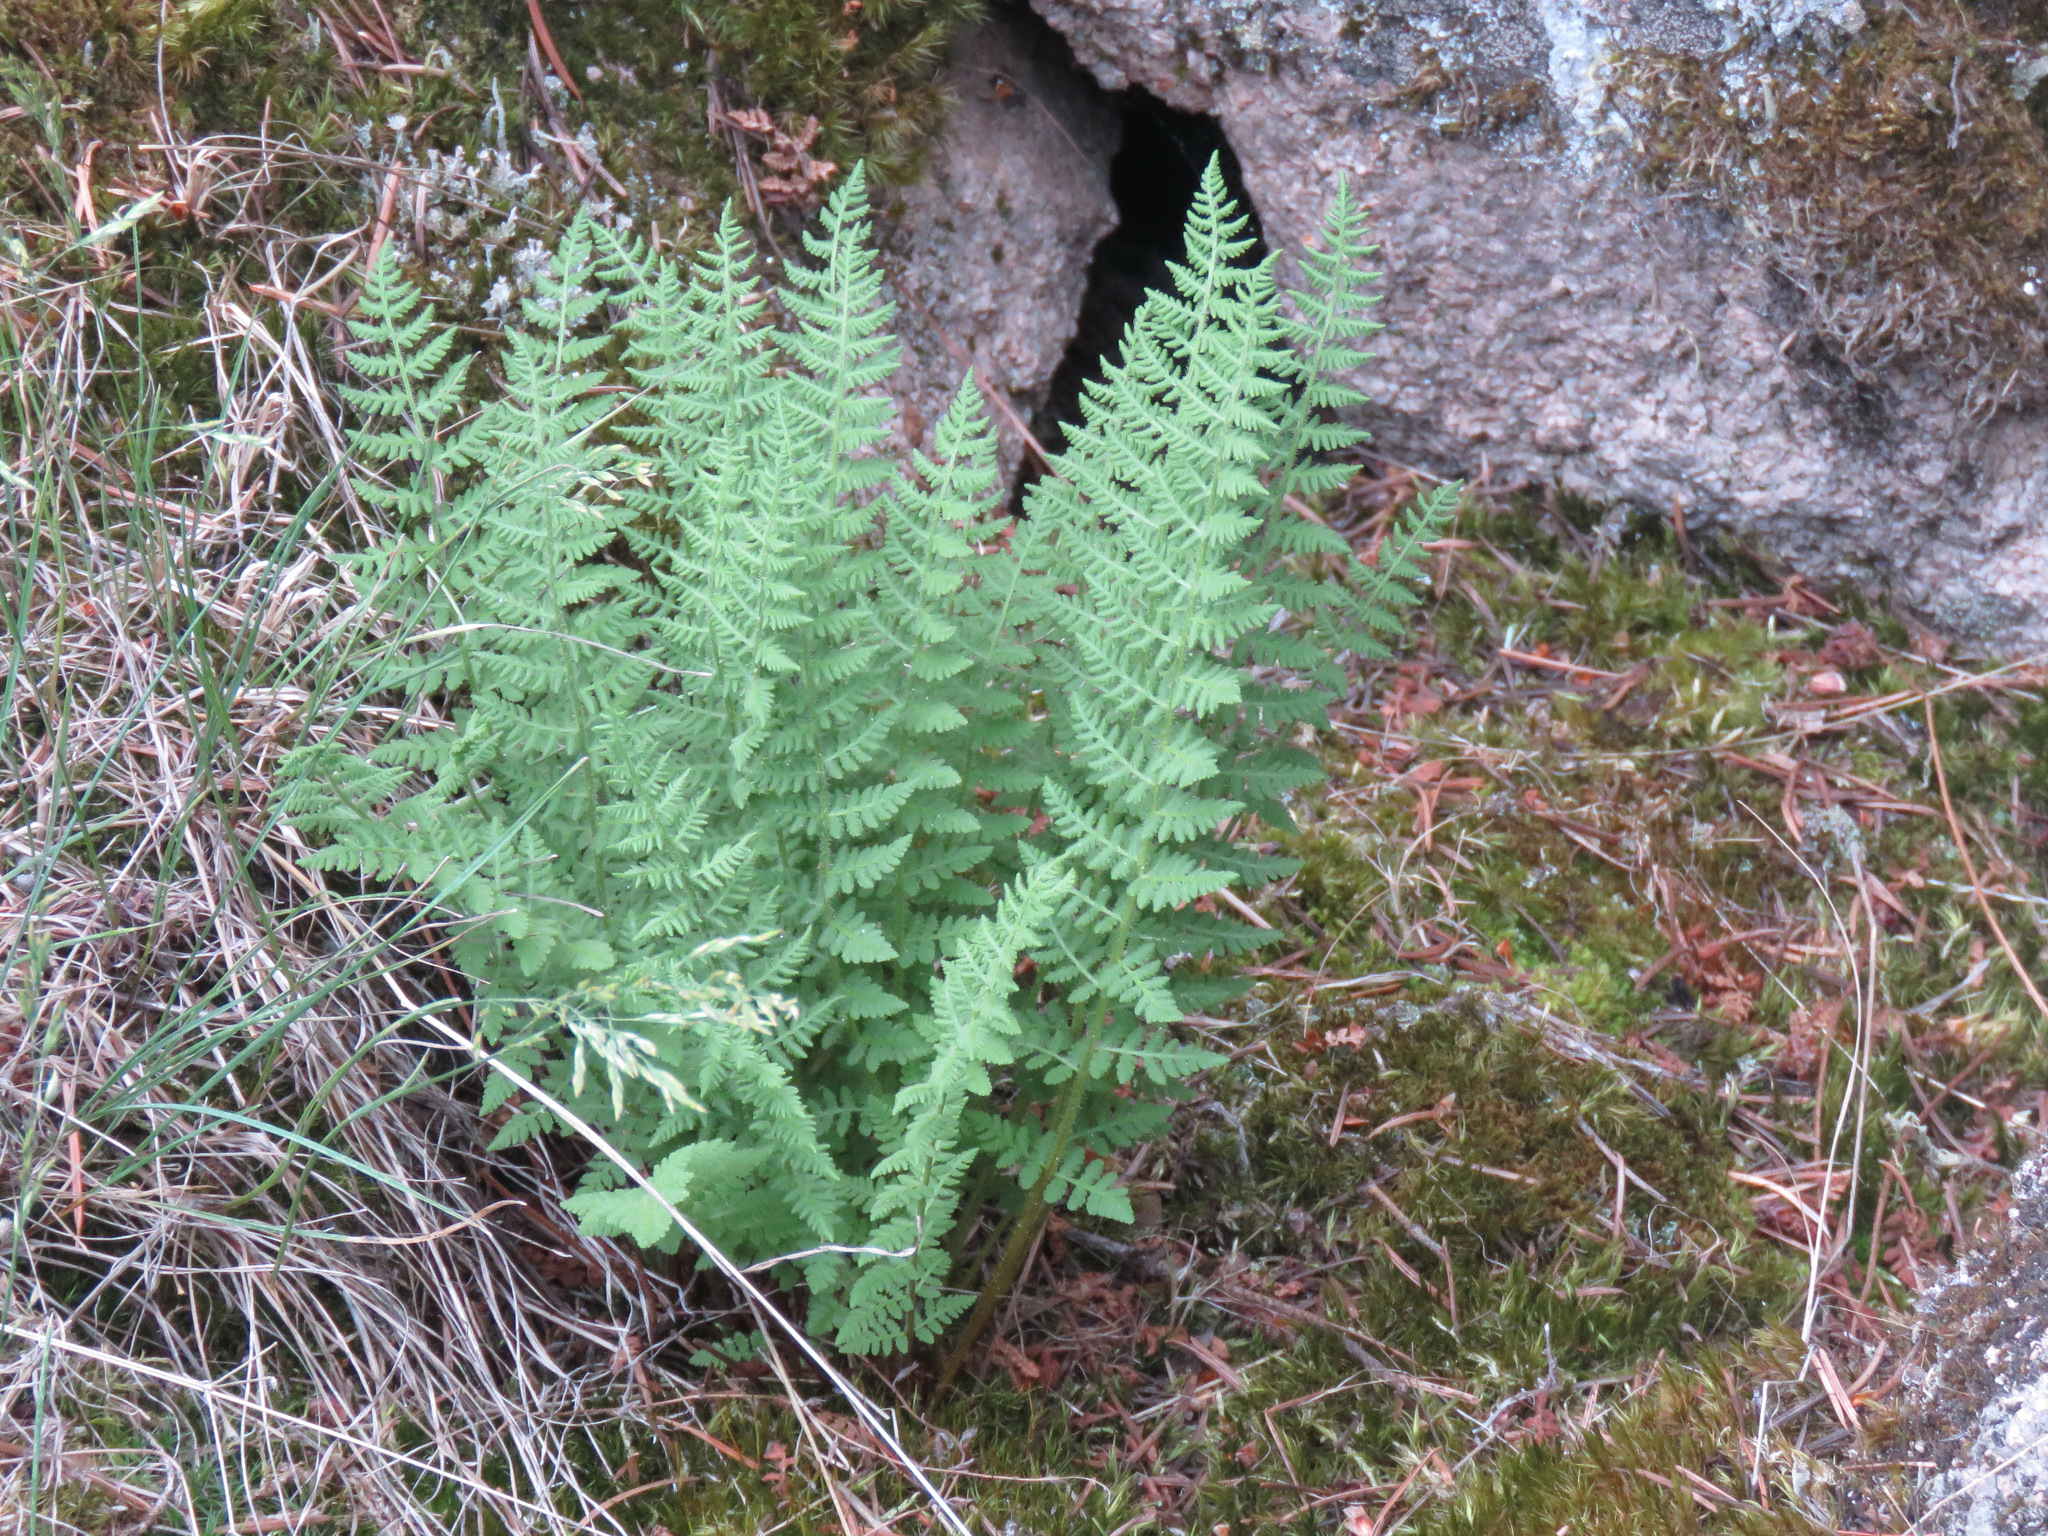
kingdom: Plantae
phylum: Tracheophyta
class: Polypodiopsida
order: Polypodiales
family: Woodsiaceae
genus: Physematium
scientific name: Physematium scopulinum
